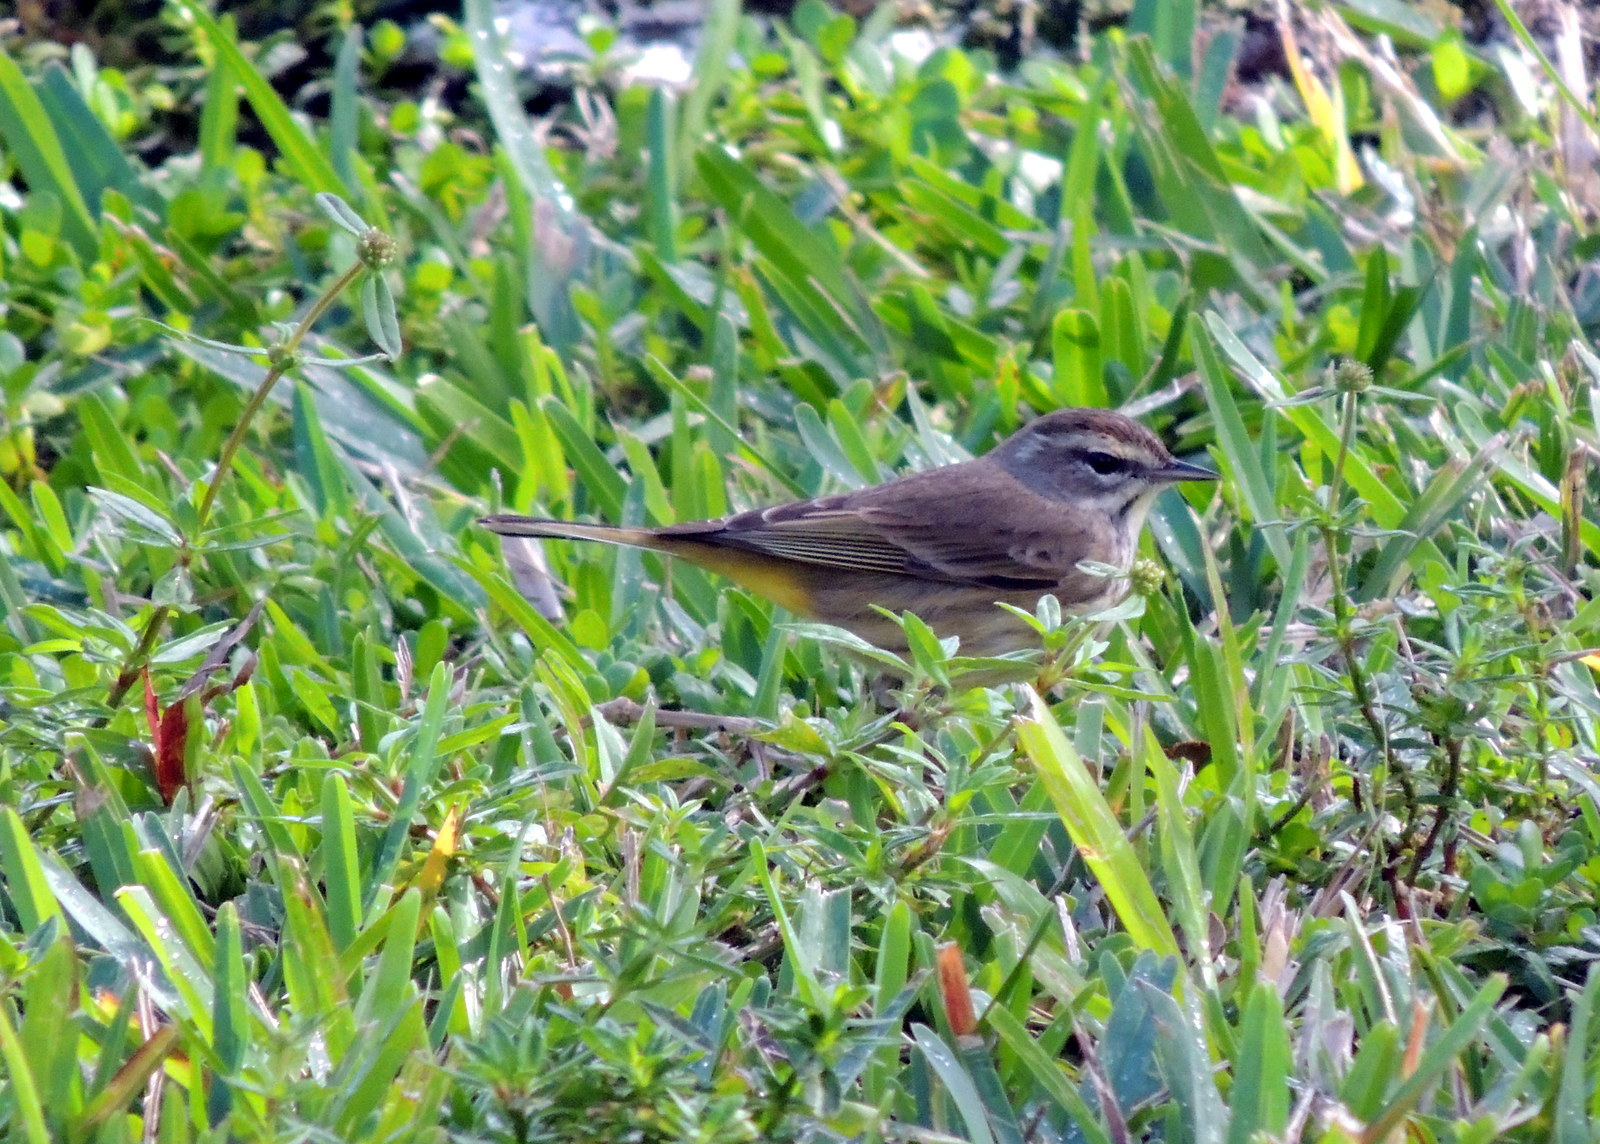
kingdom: Animalia
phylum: Chordata
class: Aves
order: Passeriformes
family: Parulidae
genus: Setophaga
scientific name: Setophaga palmarum
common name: Palm warbler
